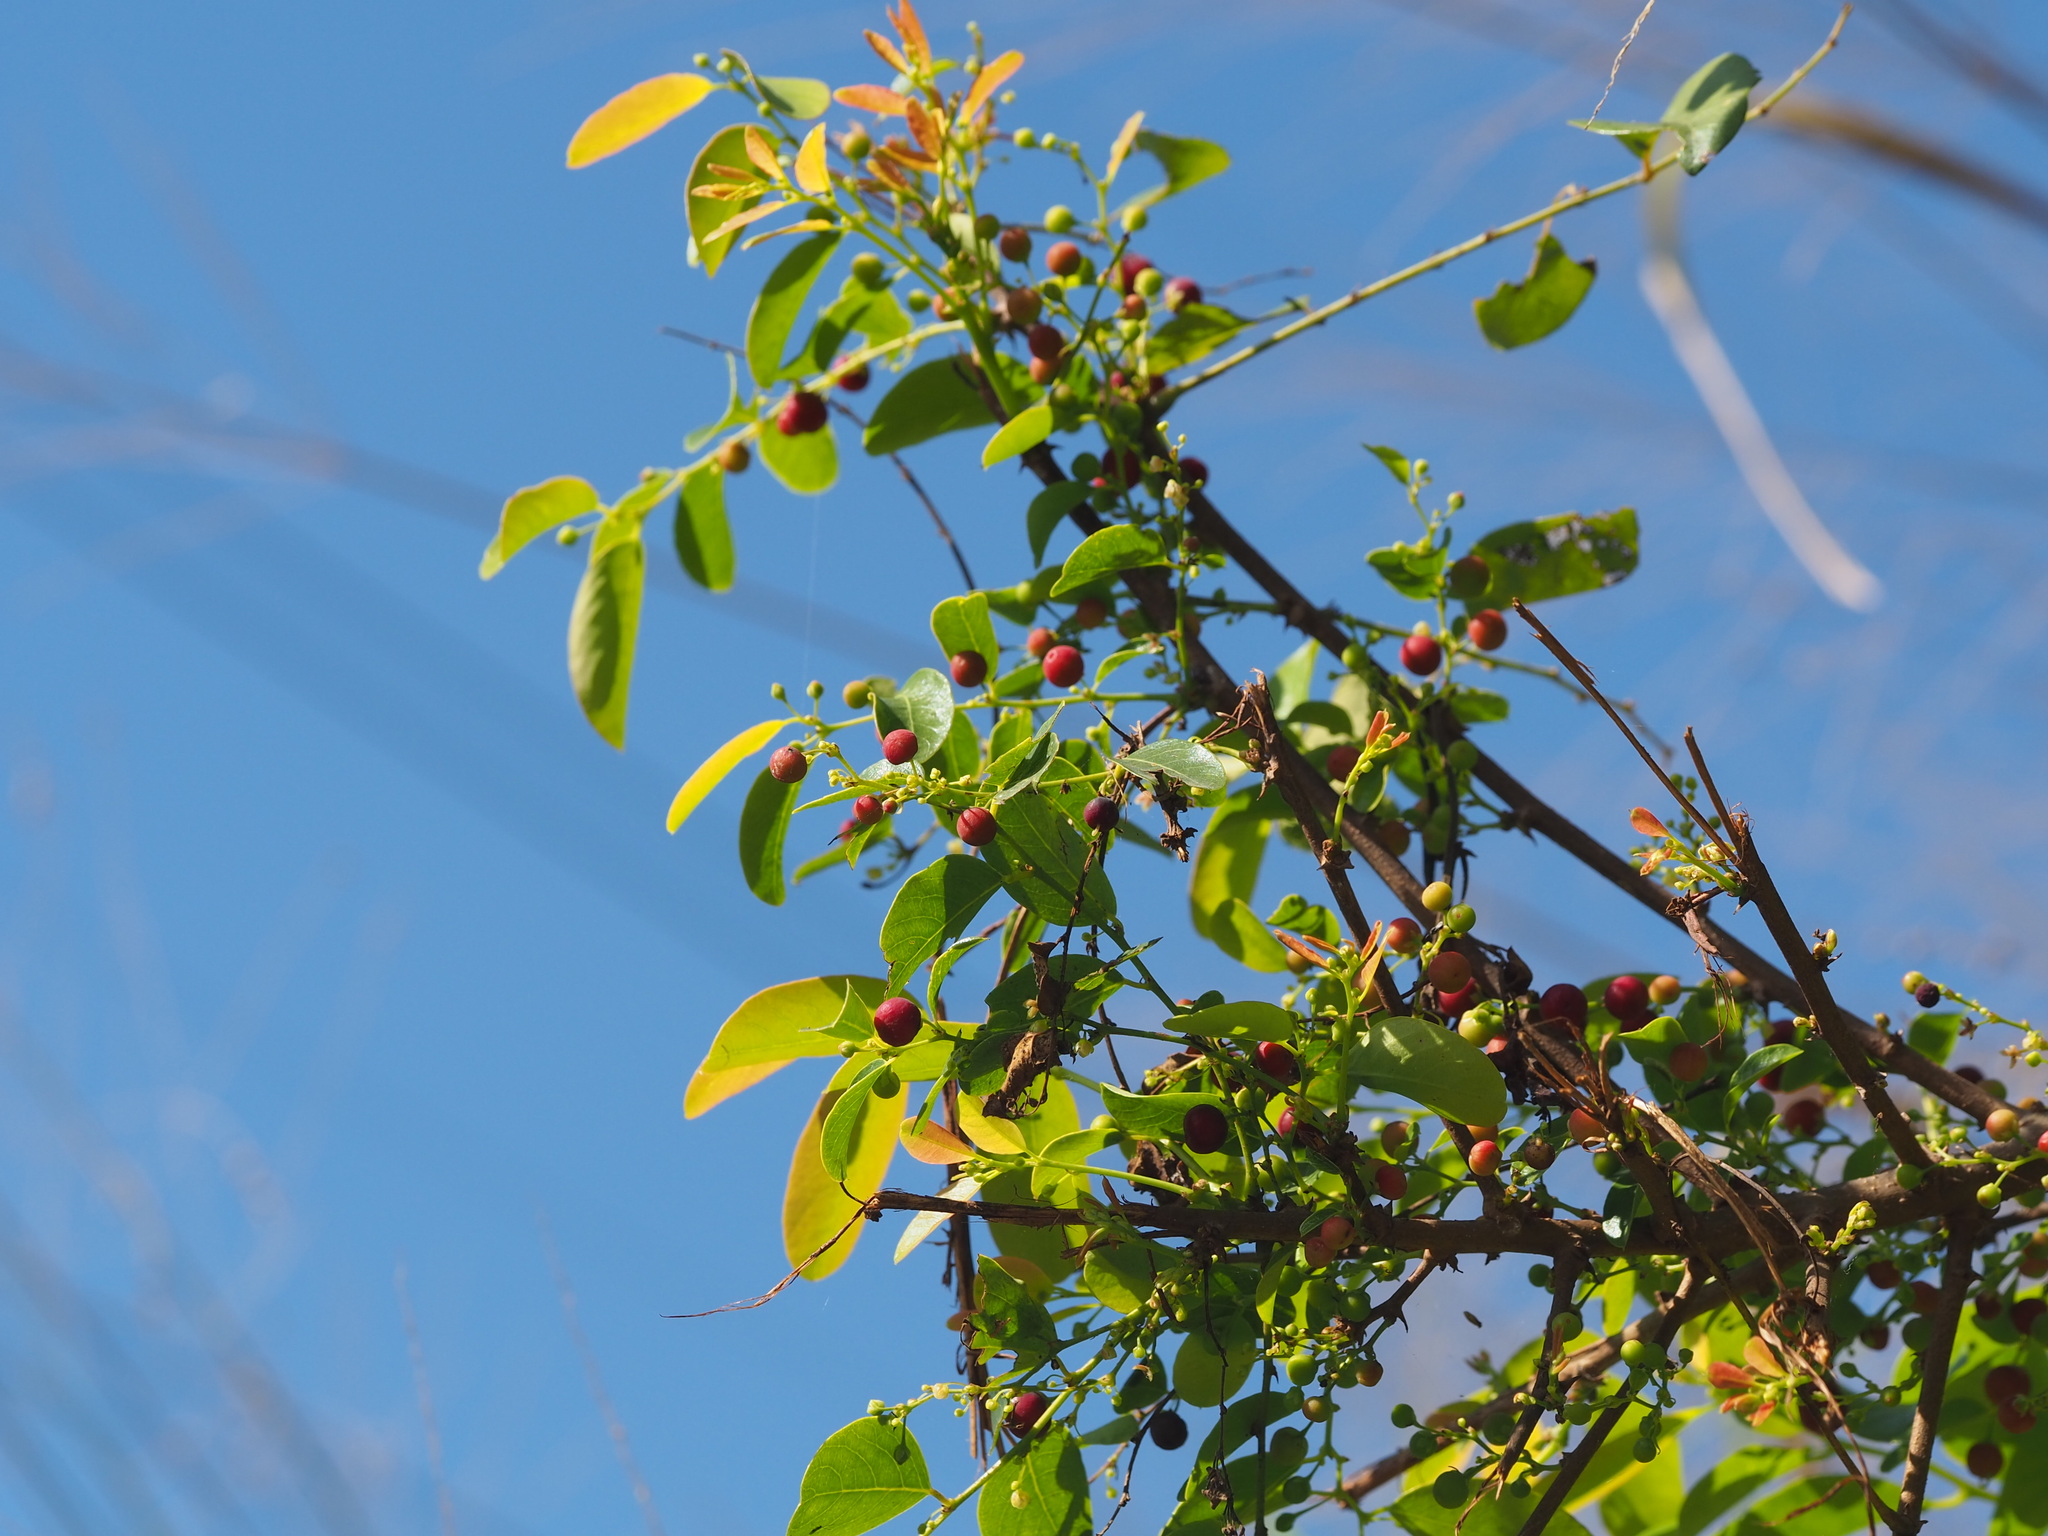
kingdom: Plantae
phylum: Tracheophyta
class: Magnoliopsida
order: Malpighiales
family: Phyllanthaceae
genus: Breynia
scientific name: Breynia vitis-idaea
